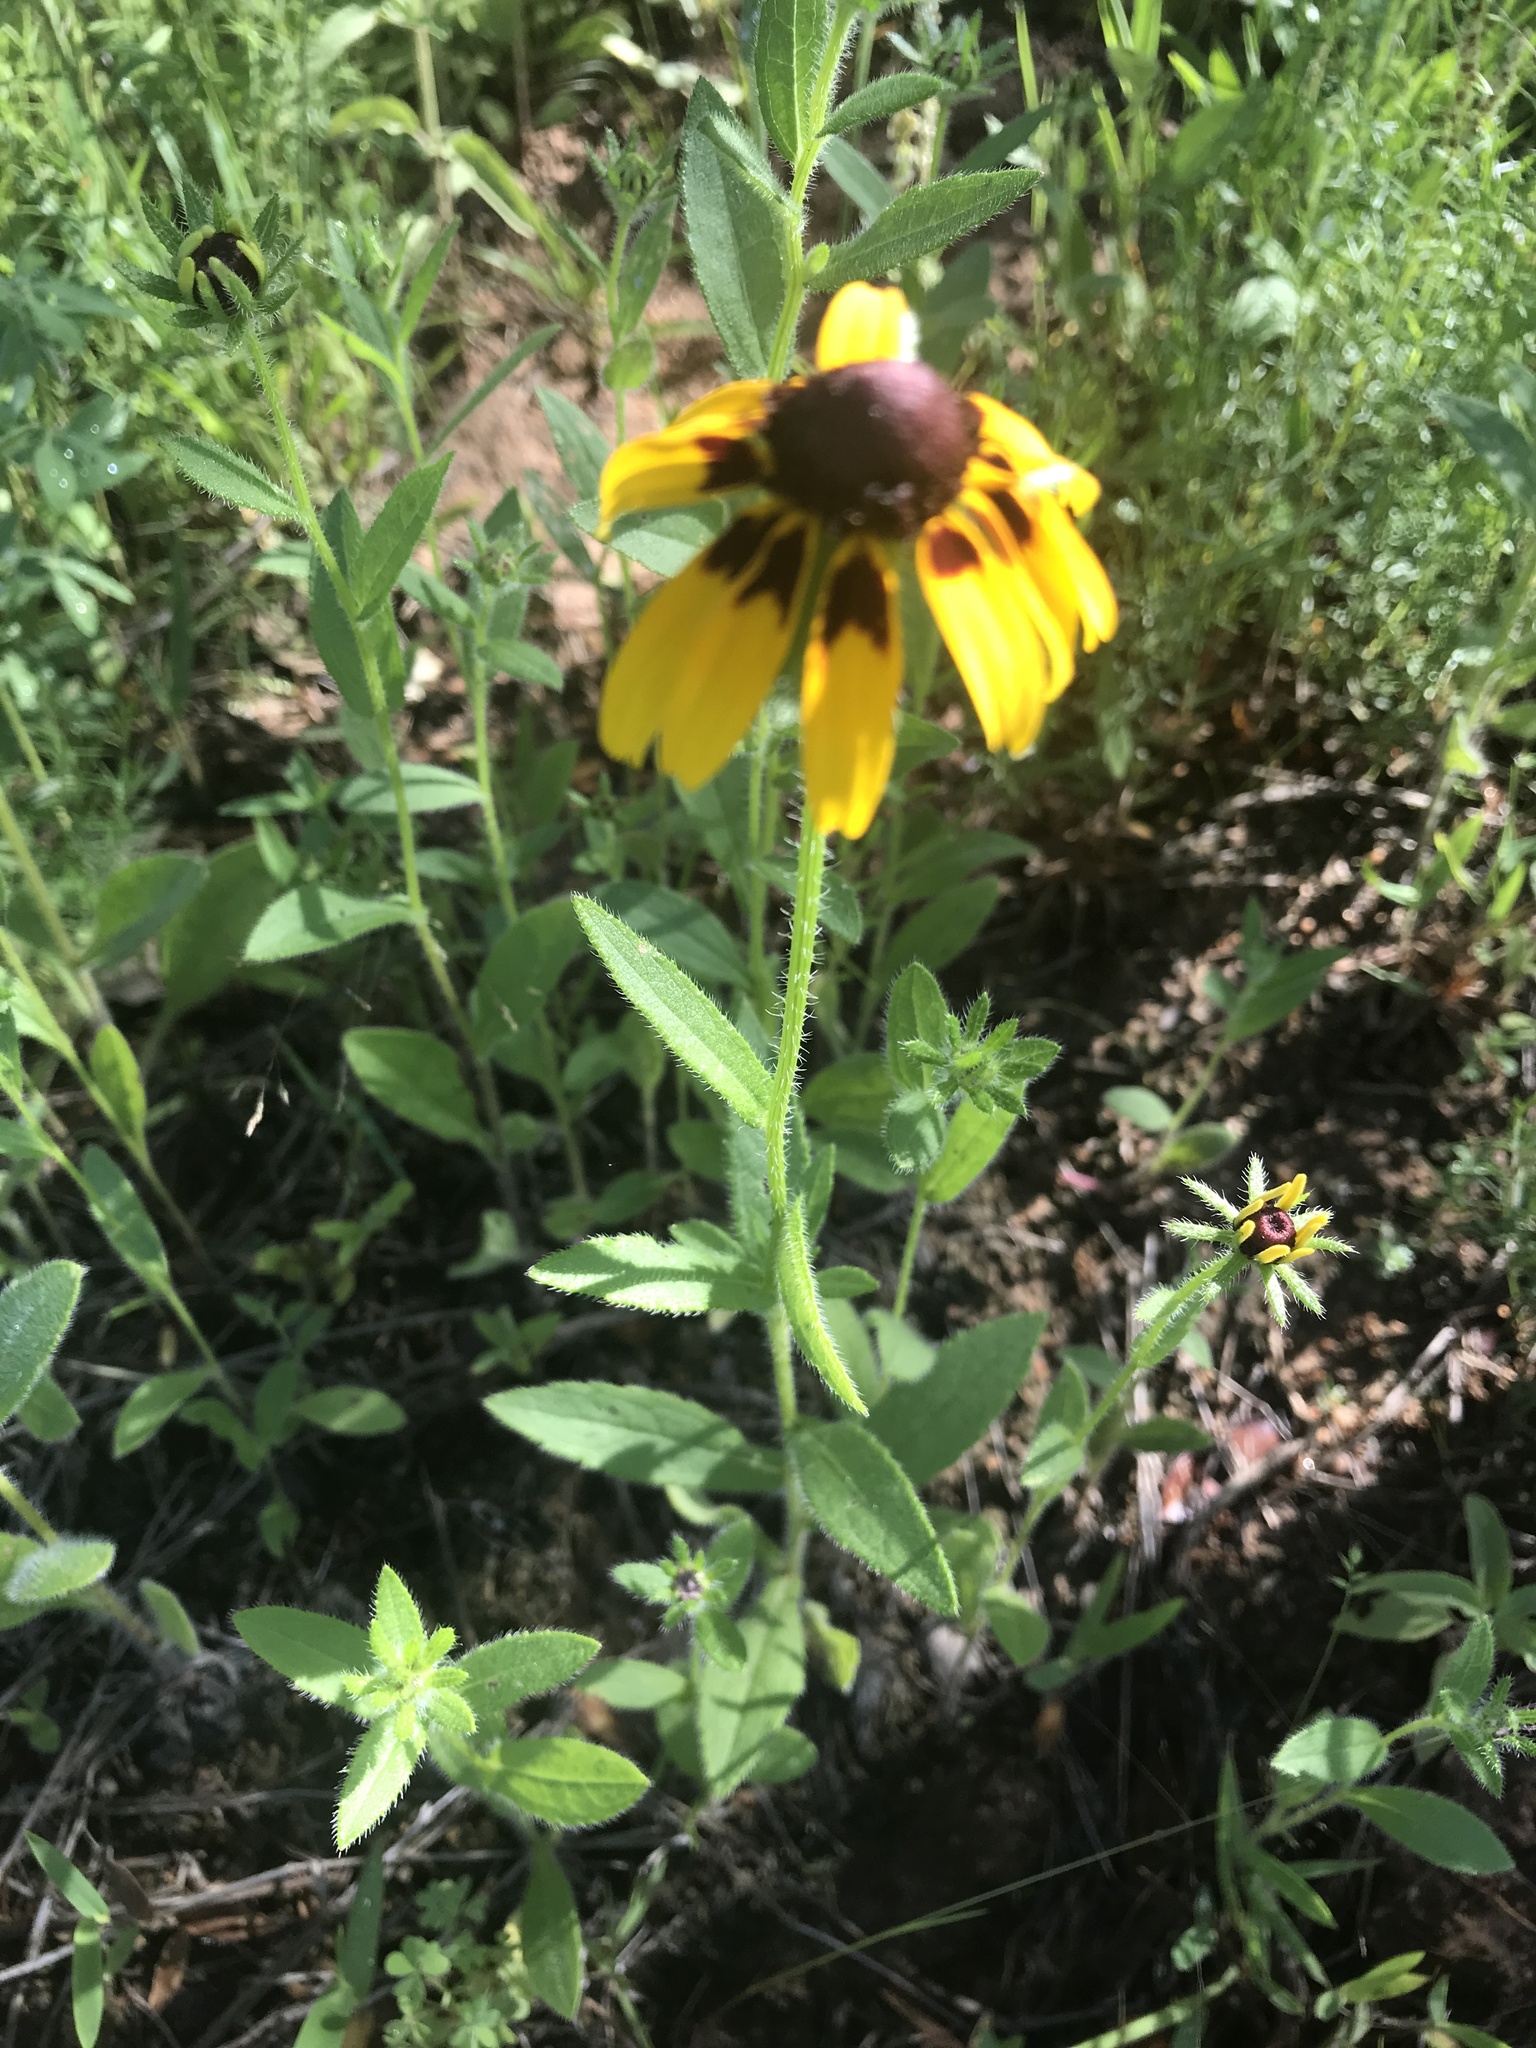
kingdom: Plantae
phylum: Tracheophyta
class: Magnoliopsida
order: Asterales
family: Asteraceae
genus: Rudbeckia
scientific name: Rudbeckia hirta
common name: Black-eyed-susan
